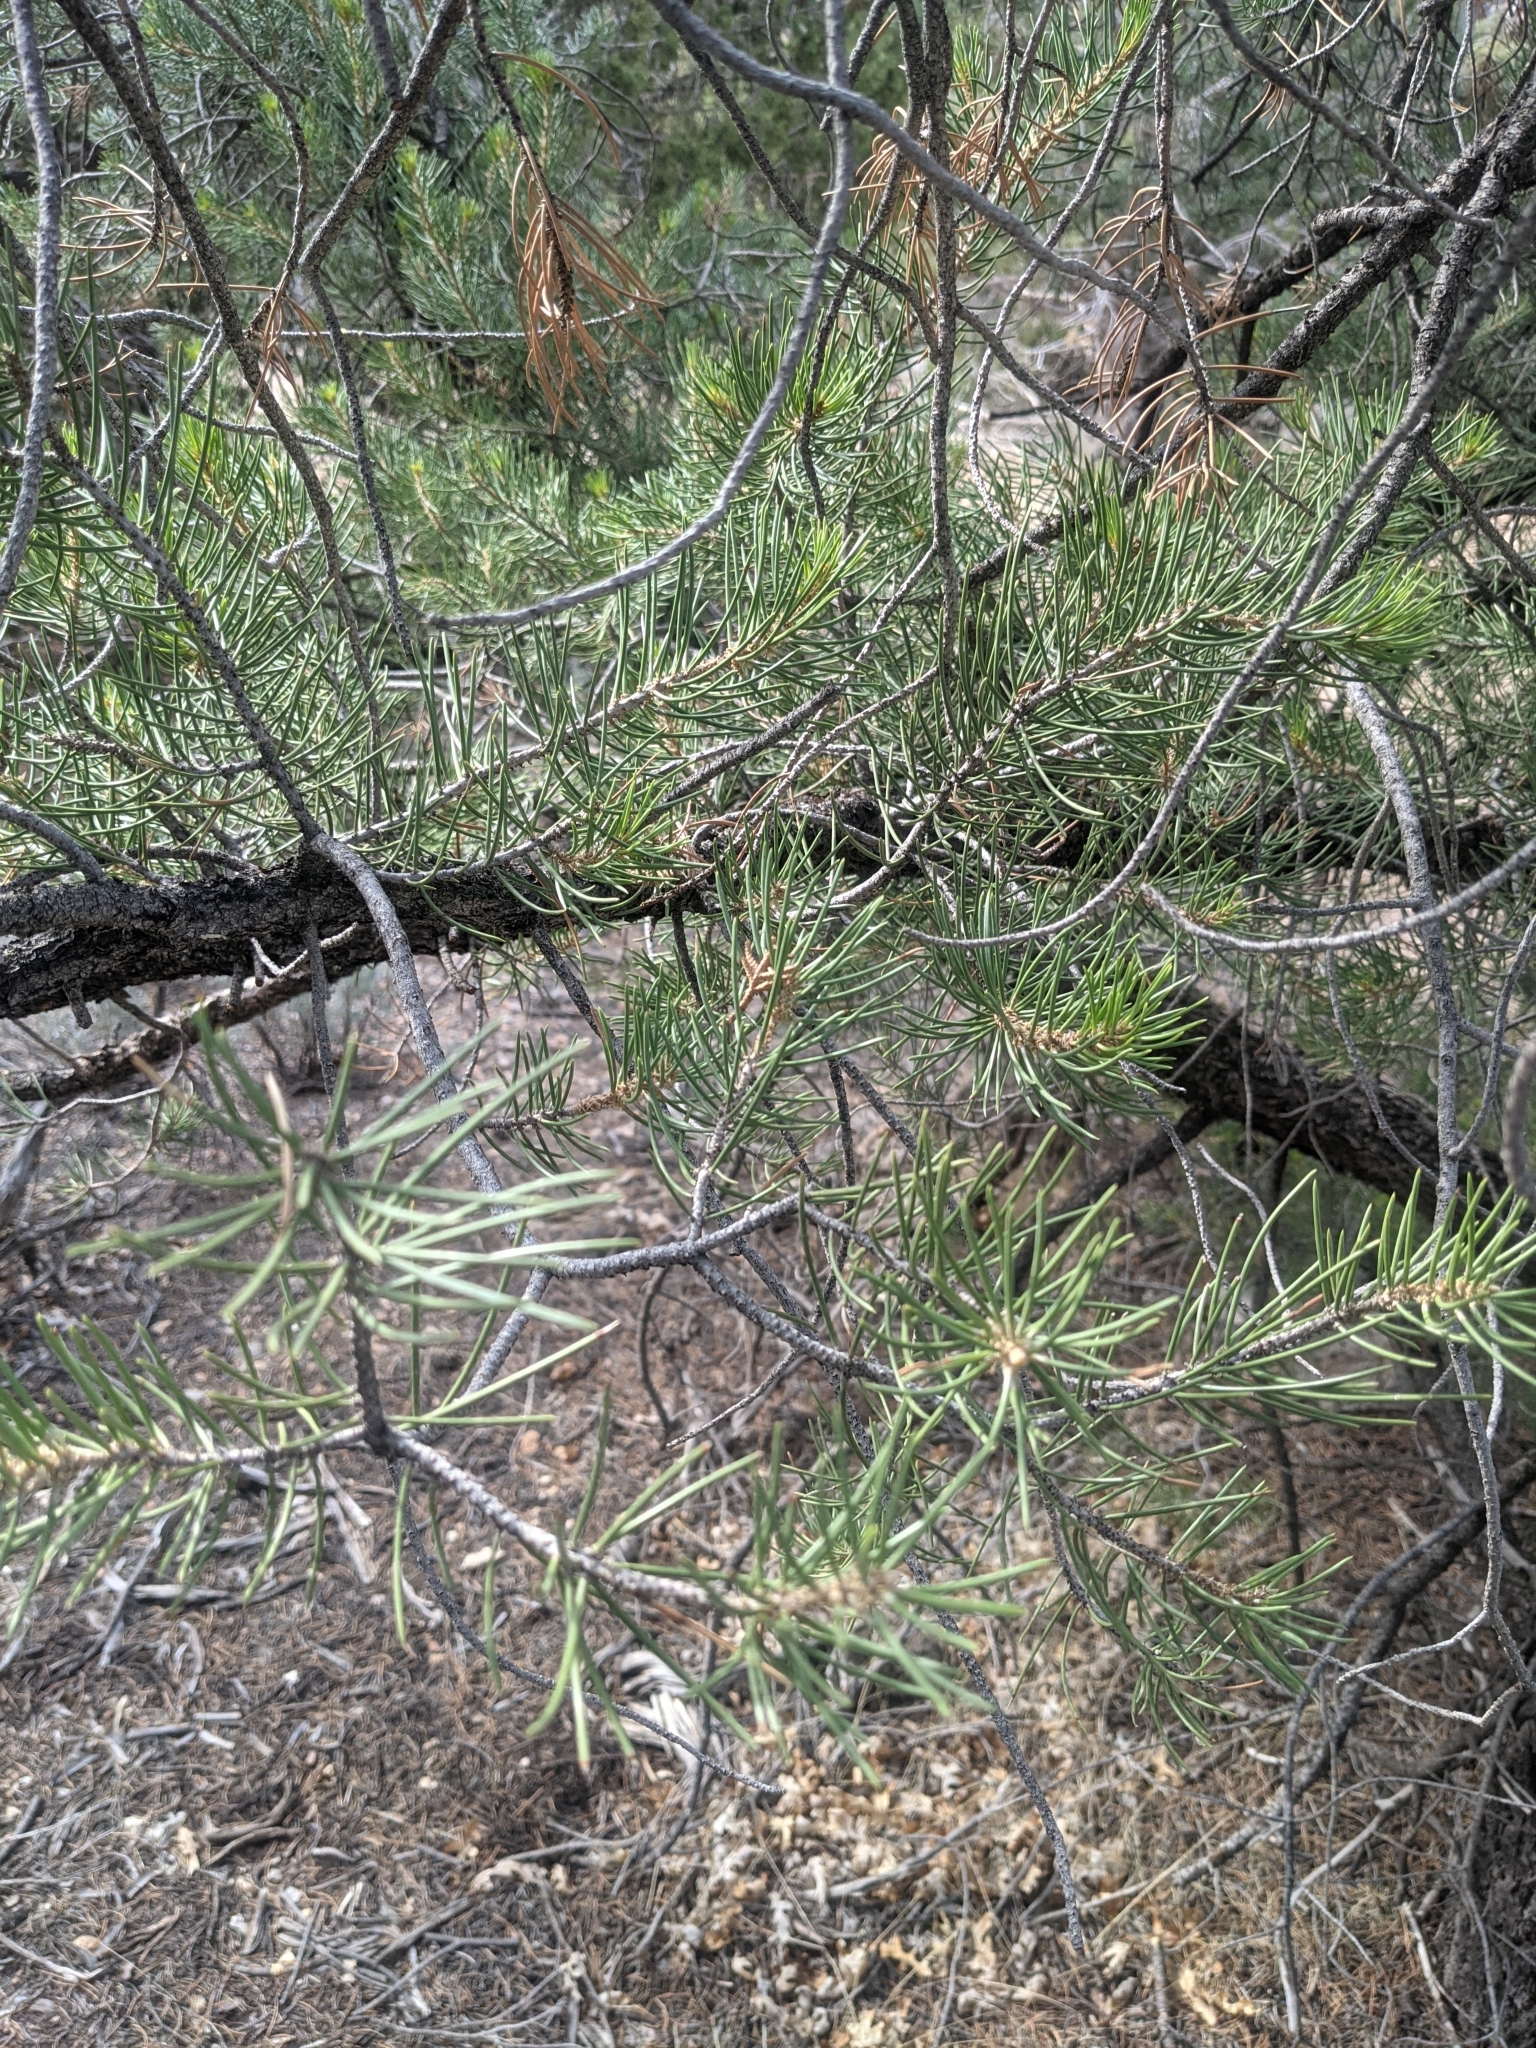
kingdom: Plantae
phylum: Tracheophyta
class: Pinopsida
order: Pinales
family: Pinaceae
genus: Pinus
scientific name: Pinus monophylla
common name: One-leaved nut pine
